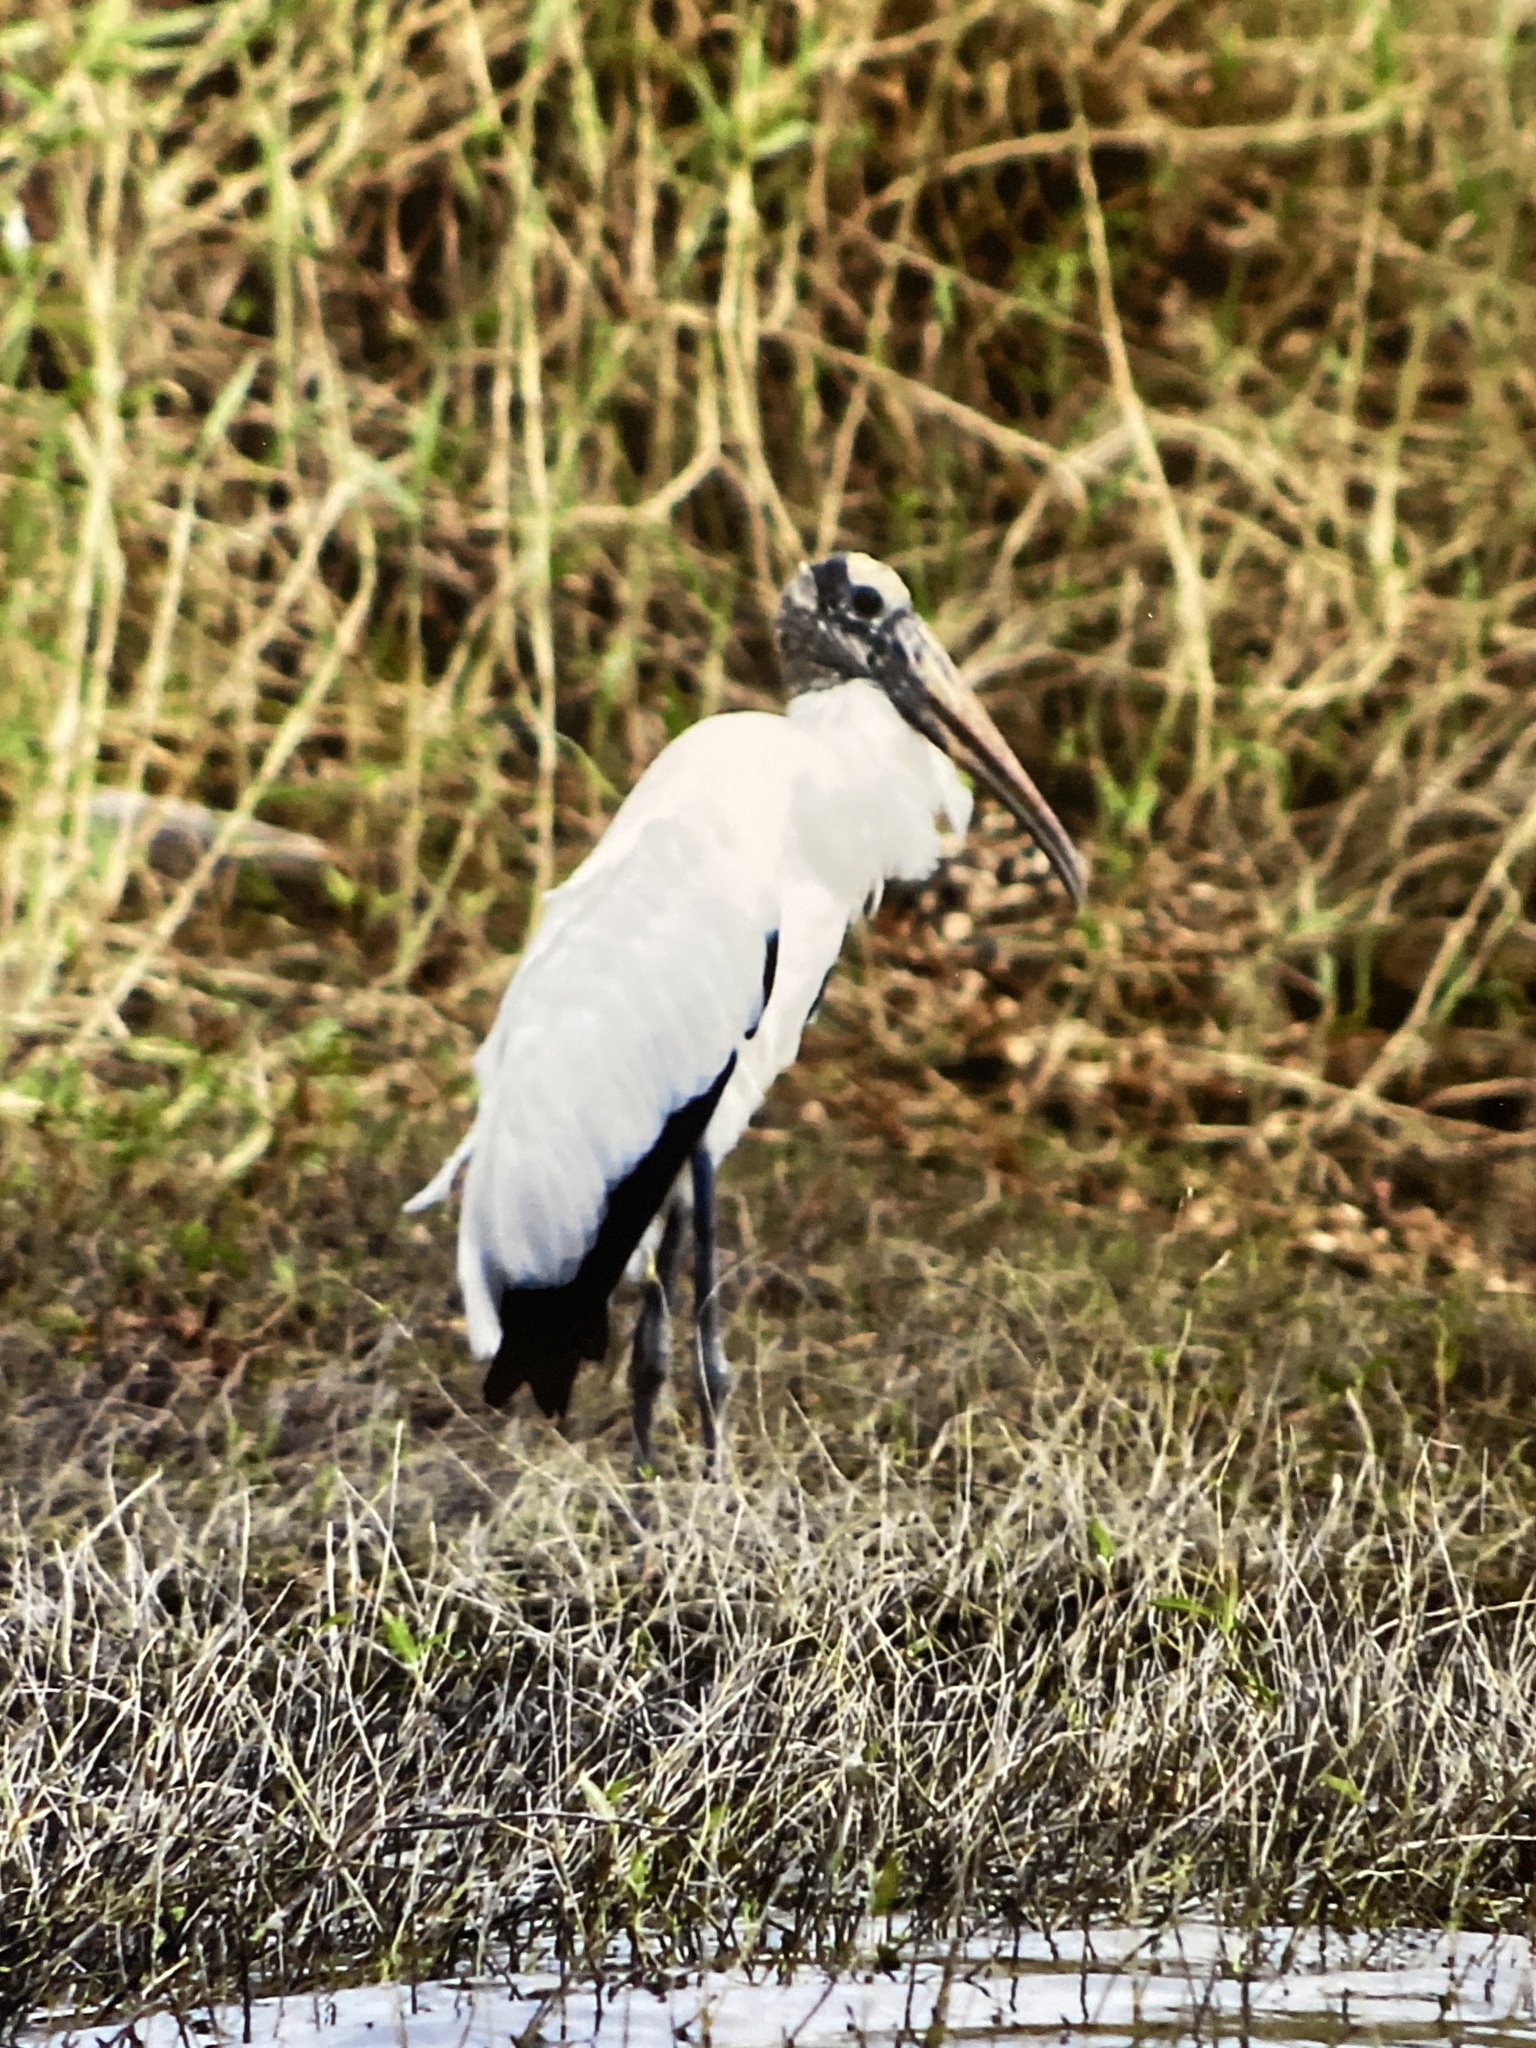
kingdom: Animalia
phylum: Chordata
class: Aves
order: Ciconiiformes
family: Ciconiidae
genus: Mycteria
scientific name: Mycteria americana
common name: Wood stork
